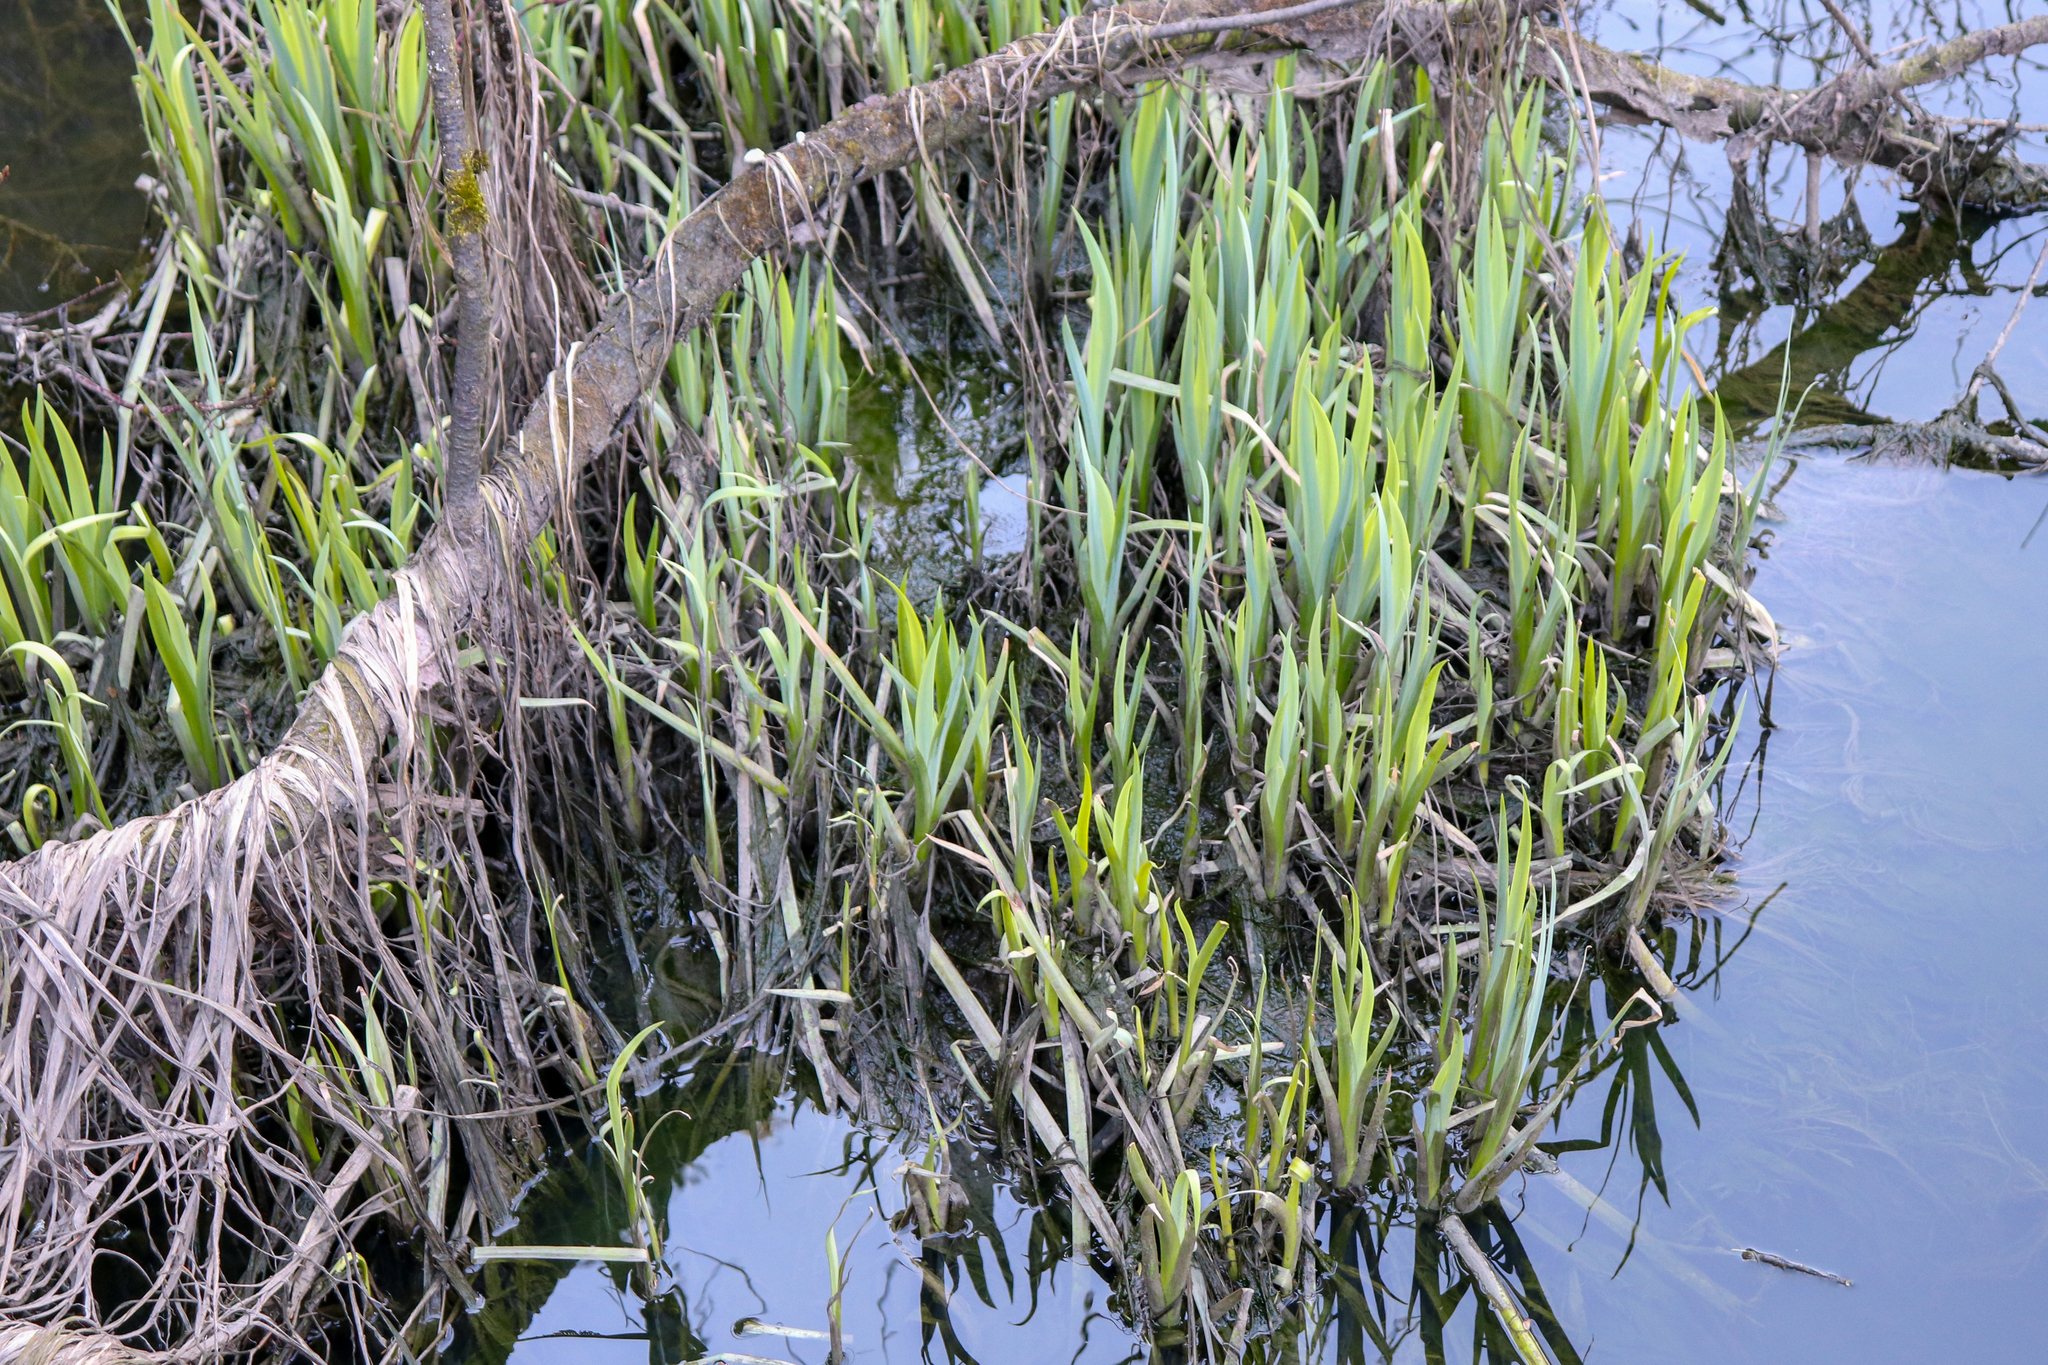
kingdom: Plantae
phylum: Tracheophyta
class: Liliopsida
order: Asparagales
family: Iridaceae
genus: Iris
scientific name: Iris pseudacorus
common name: Yellow flag
